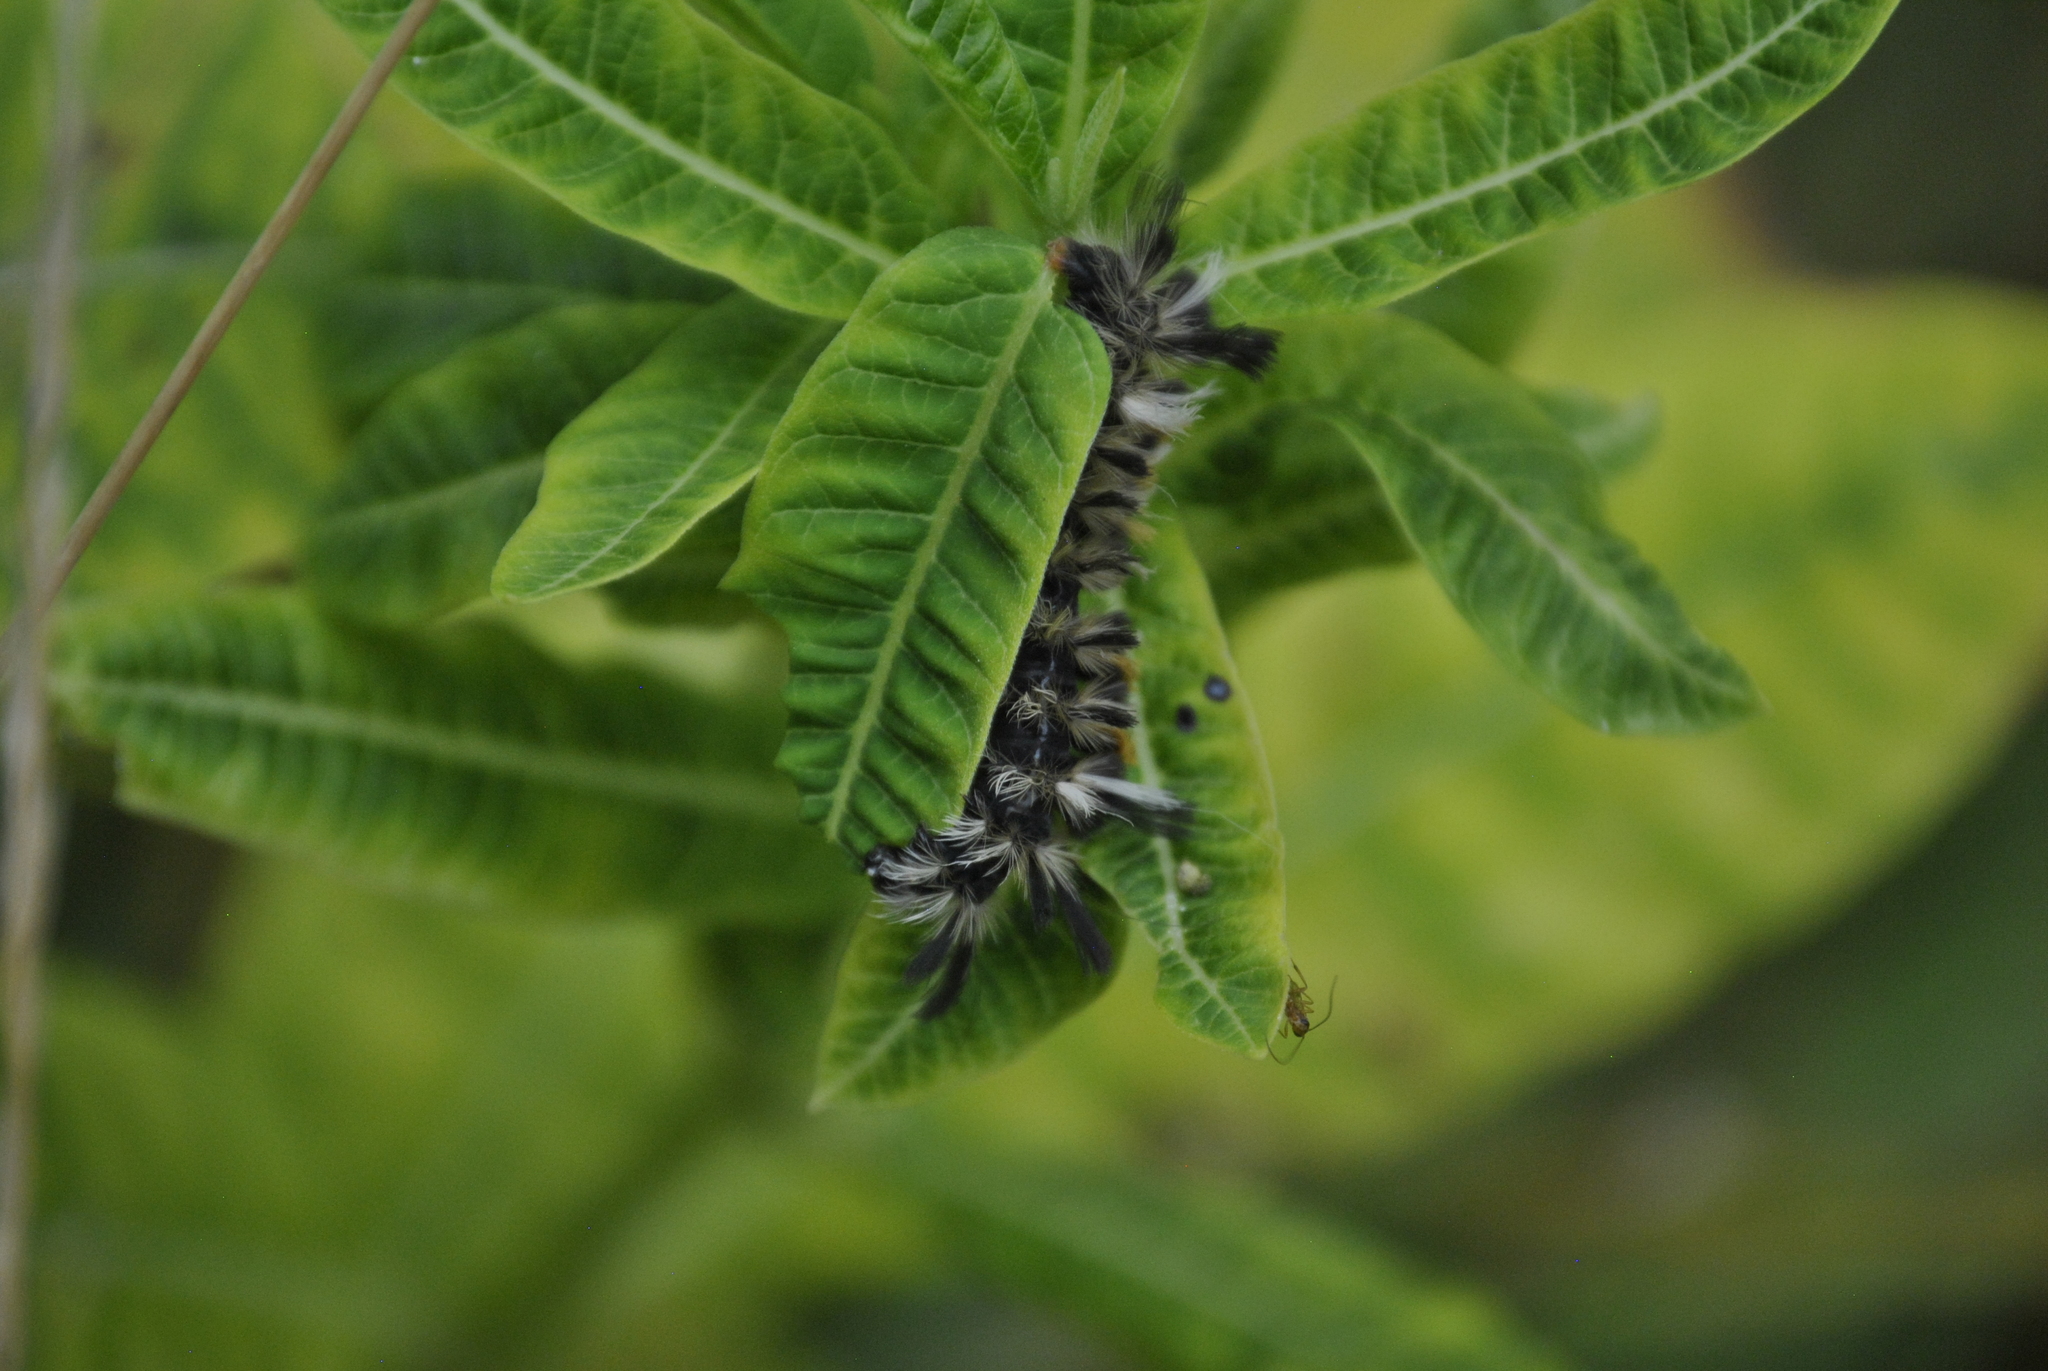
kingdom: Animalia
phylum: Arthropoda
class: Insecta
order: Lepidoptera
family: Erebidae
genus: Euchaetes
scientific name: Euchaetes egle
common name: Milkweed tussock moth
